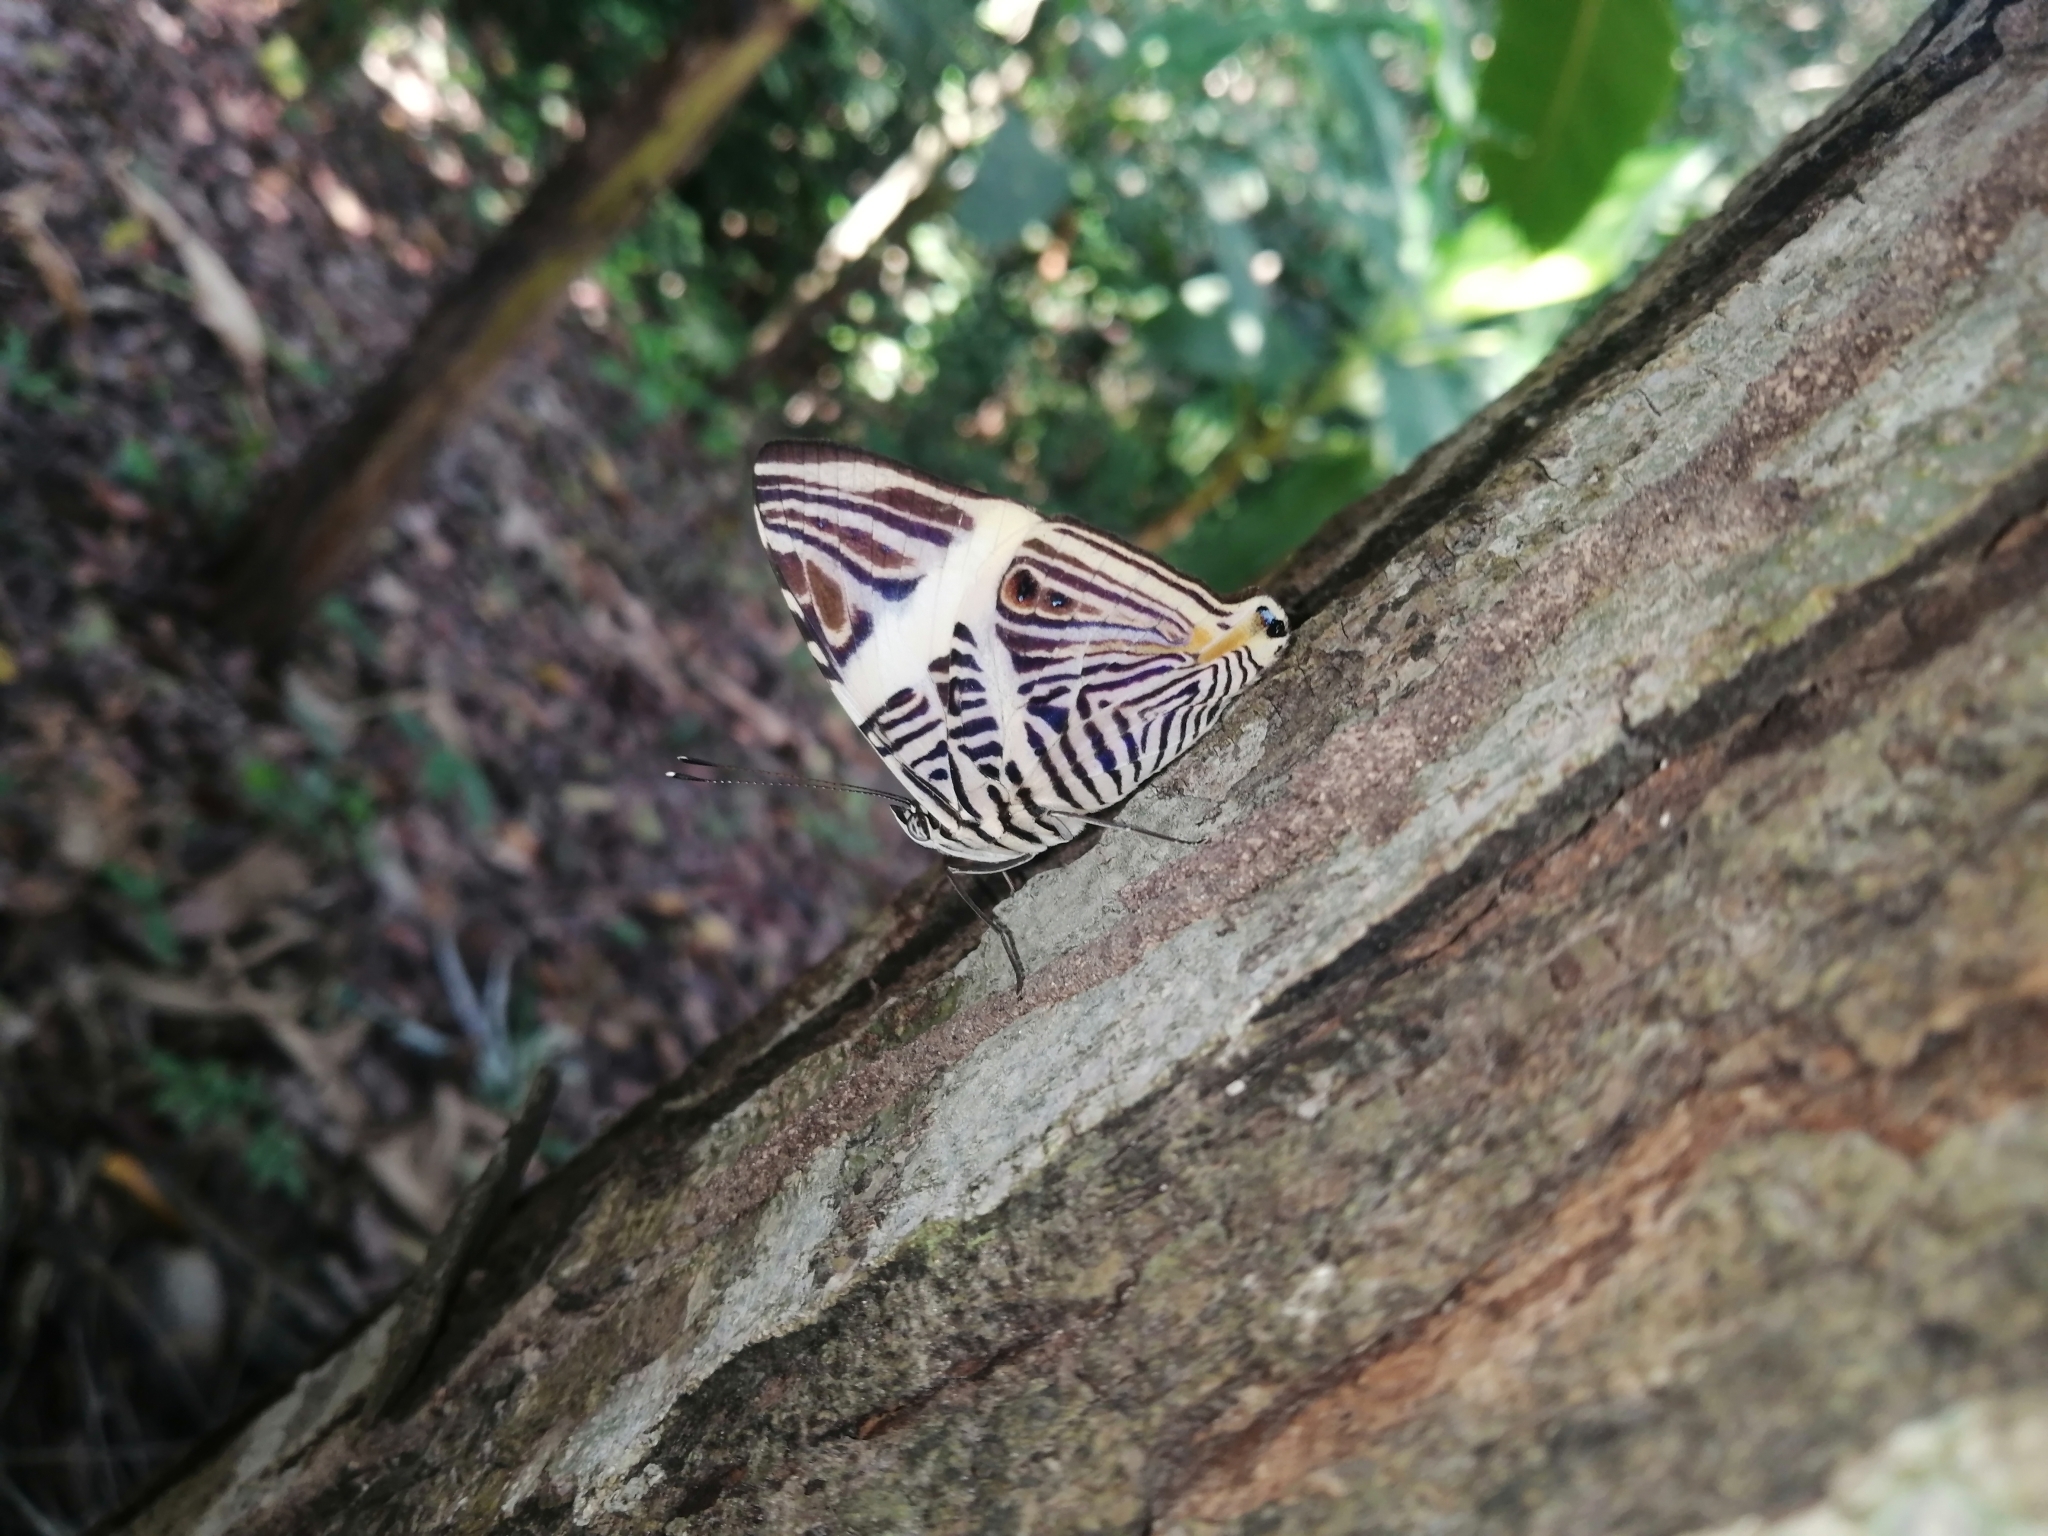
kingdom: Animalia
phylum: Arthropoda
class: Insecta
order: Lepidoptera
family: Nymphalidae
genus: Colobura
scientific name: Colobura dirce
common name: Dirce beauty
